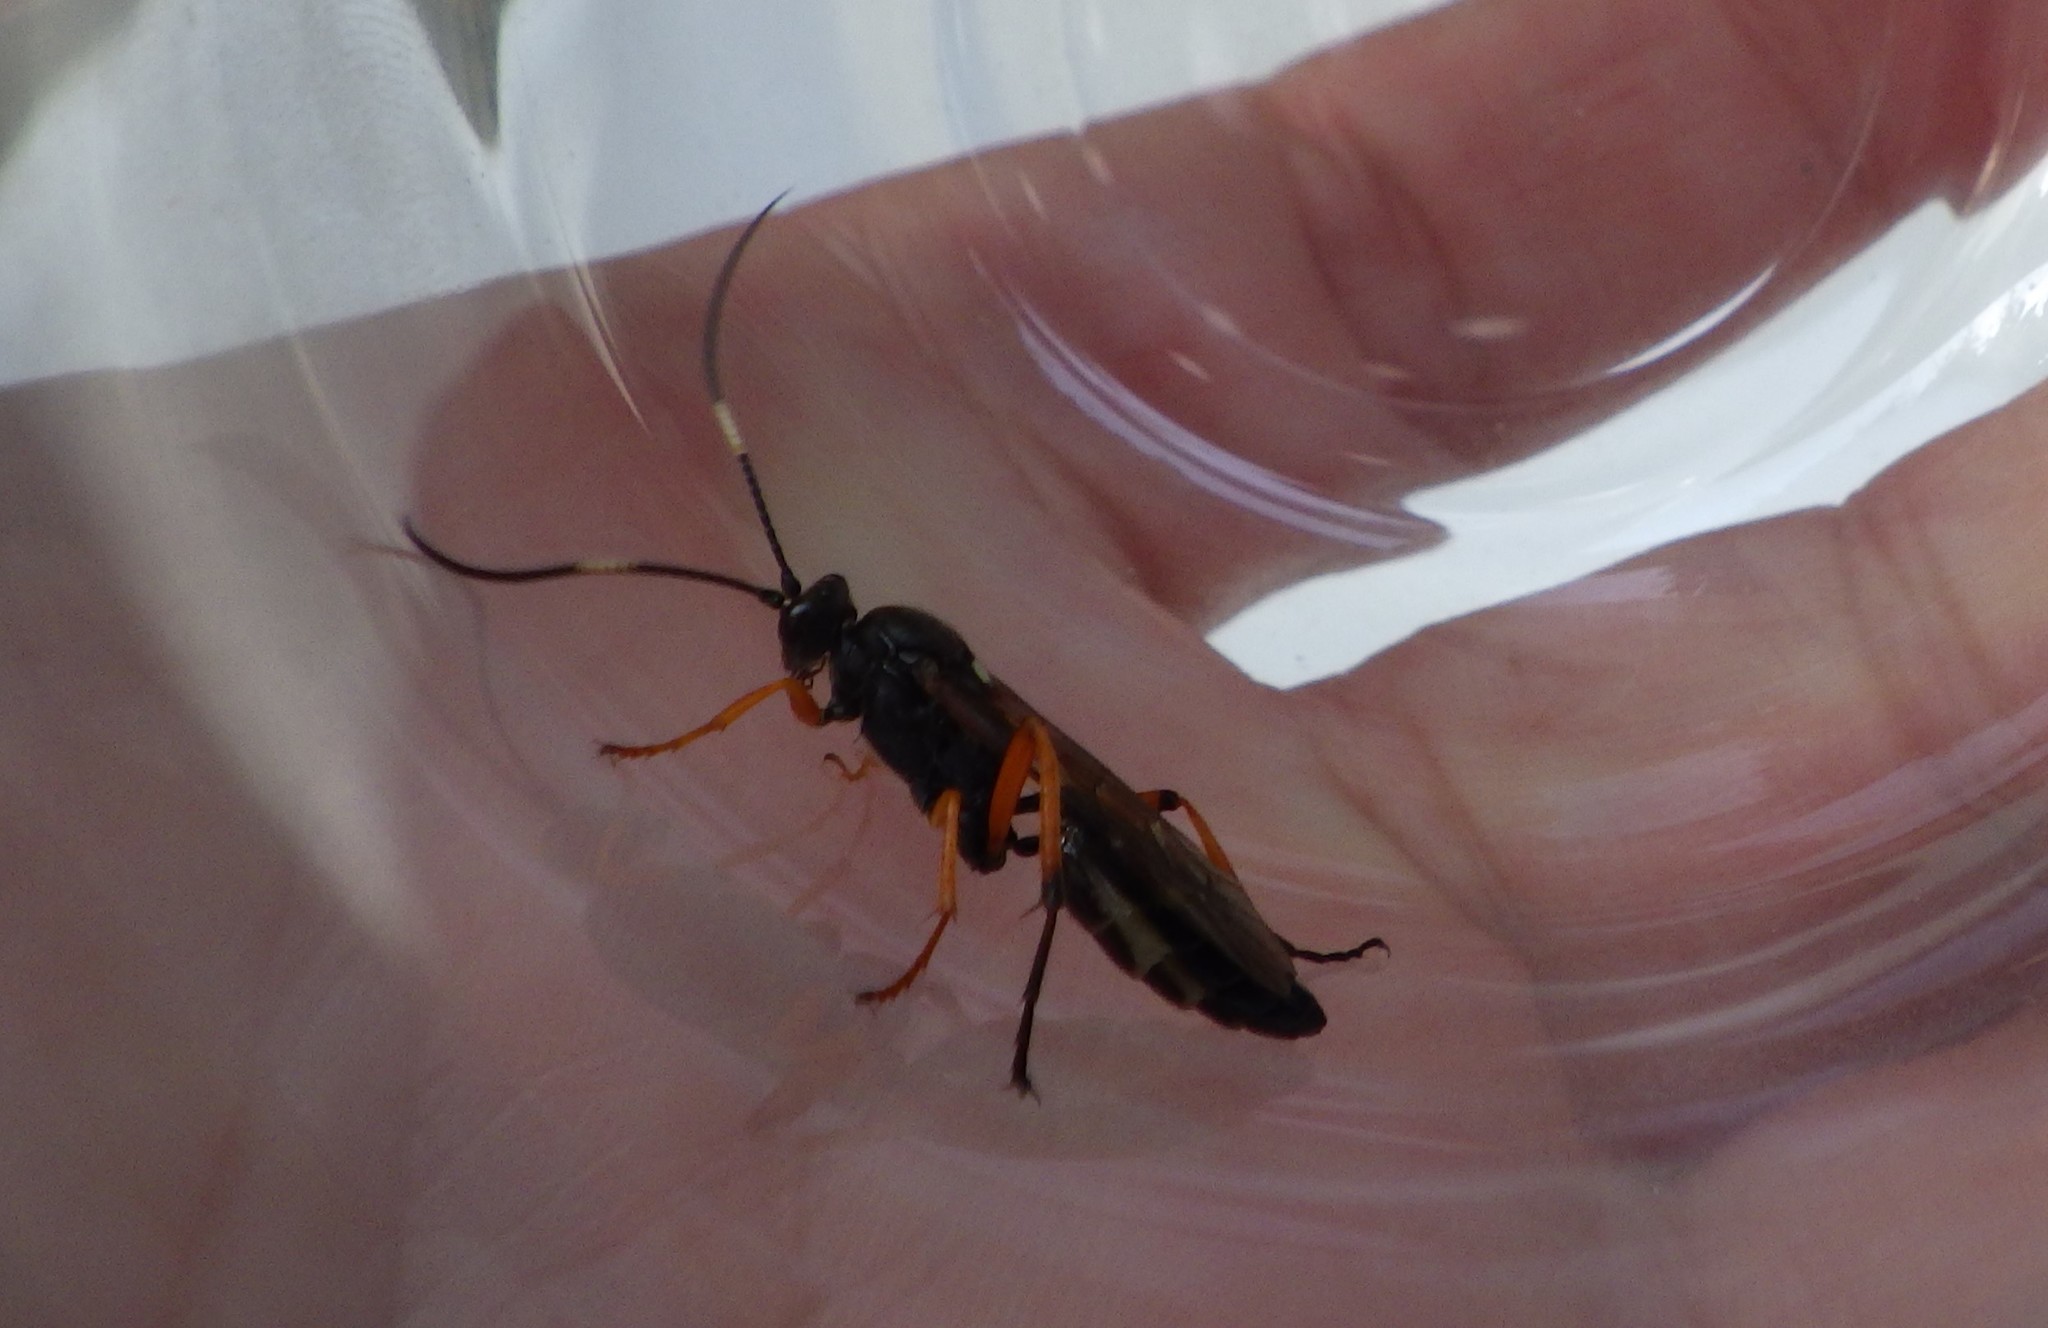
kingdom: Animalia
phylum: Arthropoda
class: Insecta
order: Hymenoptera
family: Ichneumonidae
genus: Diphyus
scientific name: Diphyus quadripunctorius
